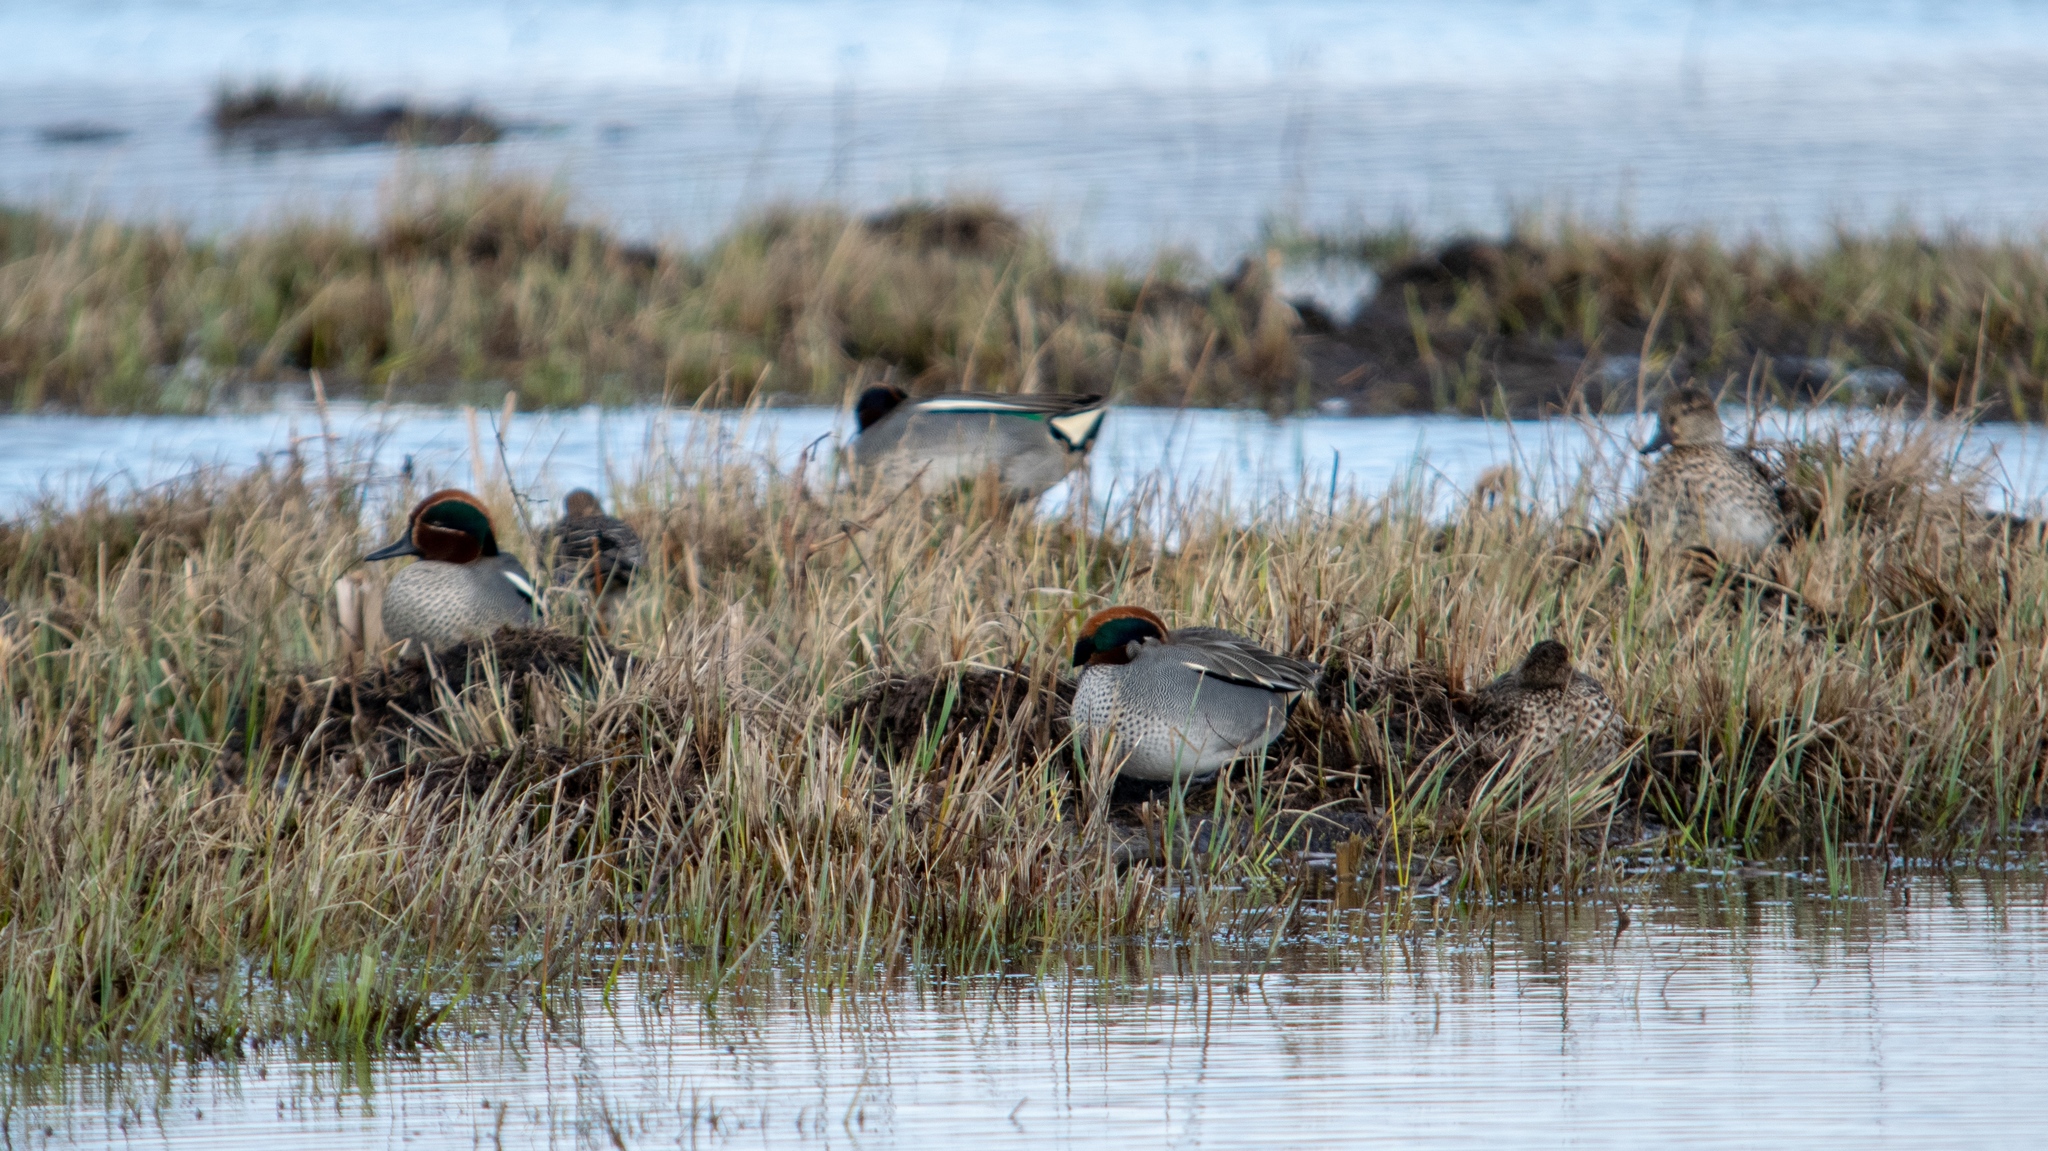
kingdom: Animalia
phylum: Chordata
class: Aves
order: Anseriformes
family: Anatidae
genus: Anas
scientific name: Anas crecca
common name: Eurasian teal
